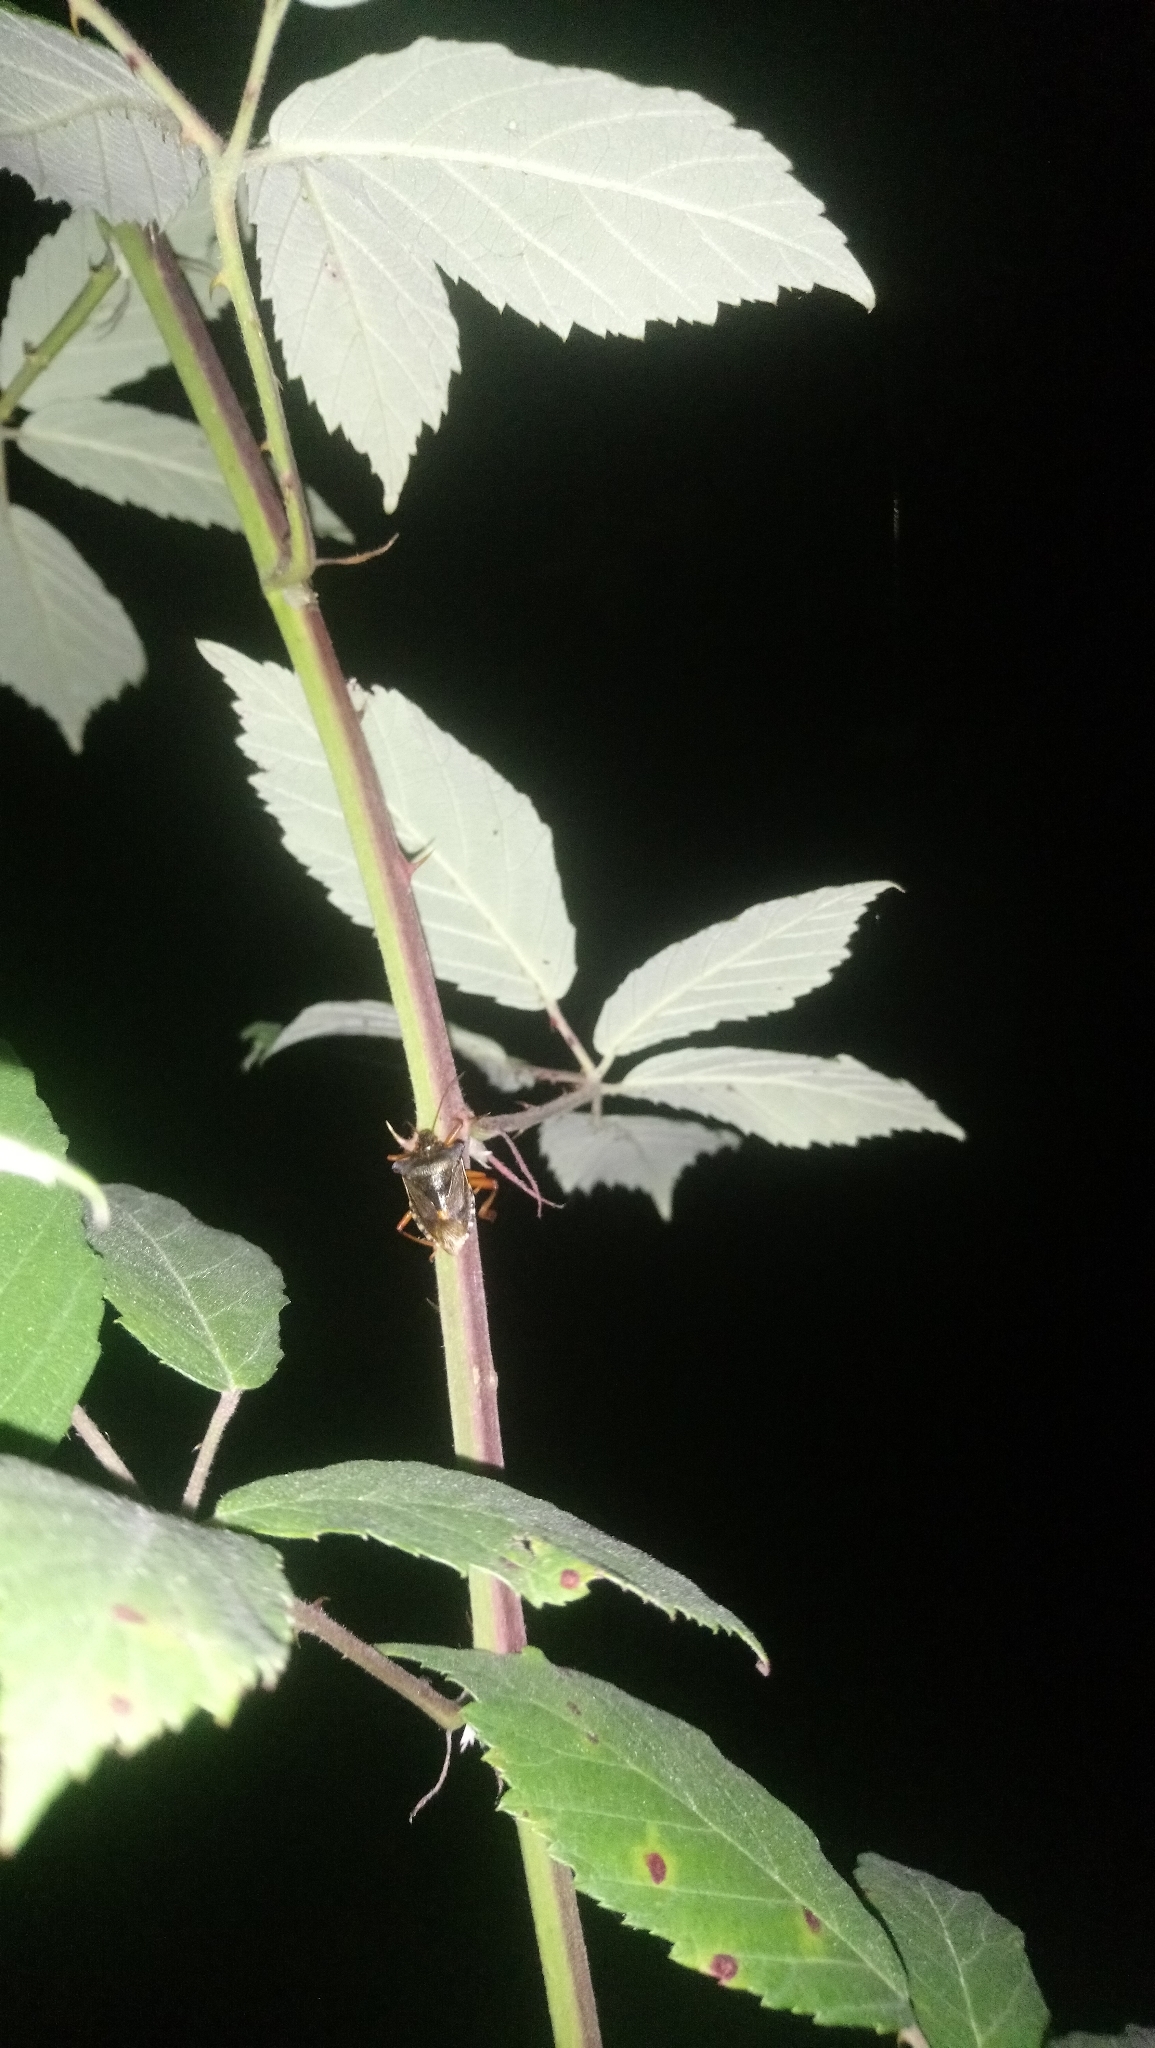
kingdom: Animalia
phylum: Arthropoda
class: Insecta
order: Hemiptera
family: Pentatomidae
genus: Pentatoma
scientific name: Pentatoma rufipes
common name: Forest bug
